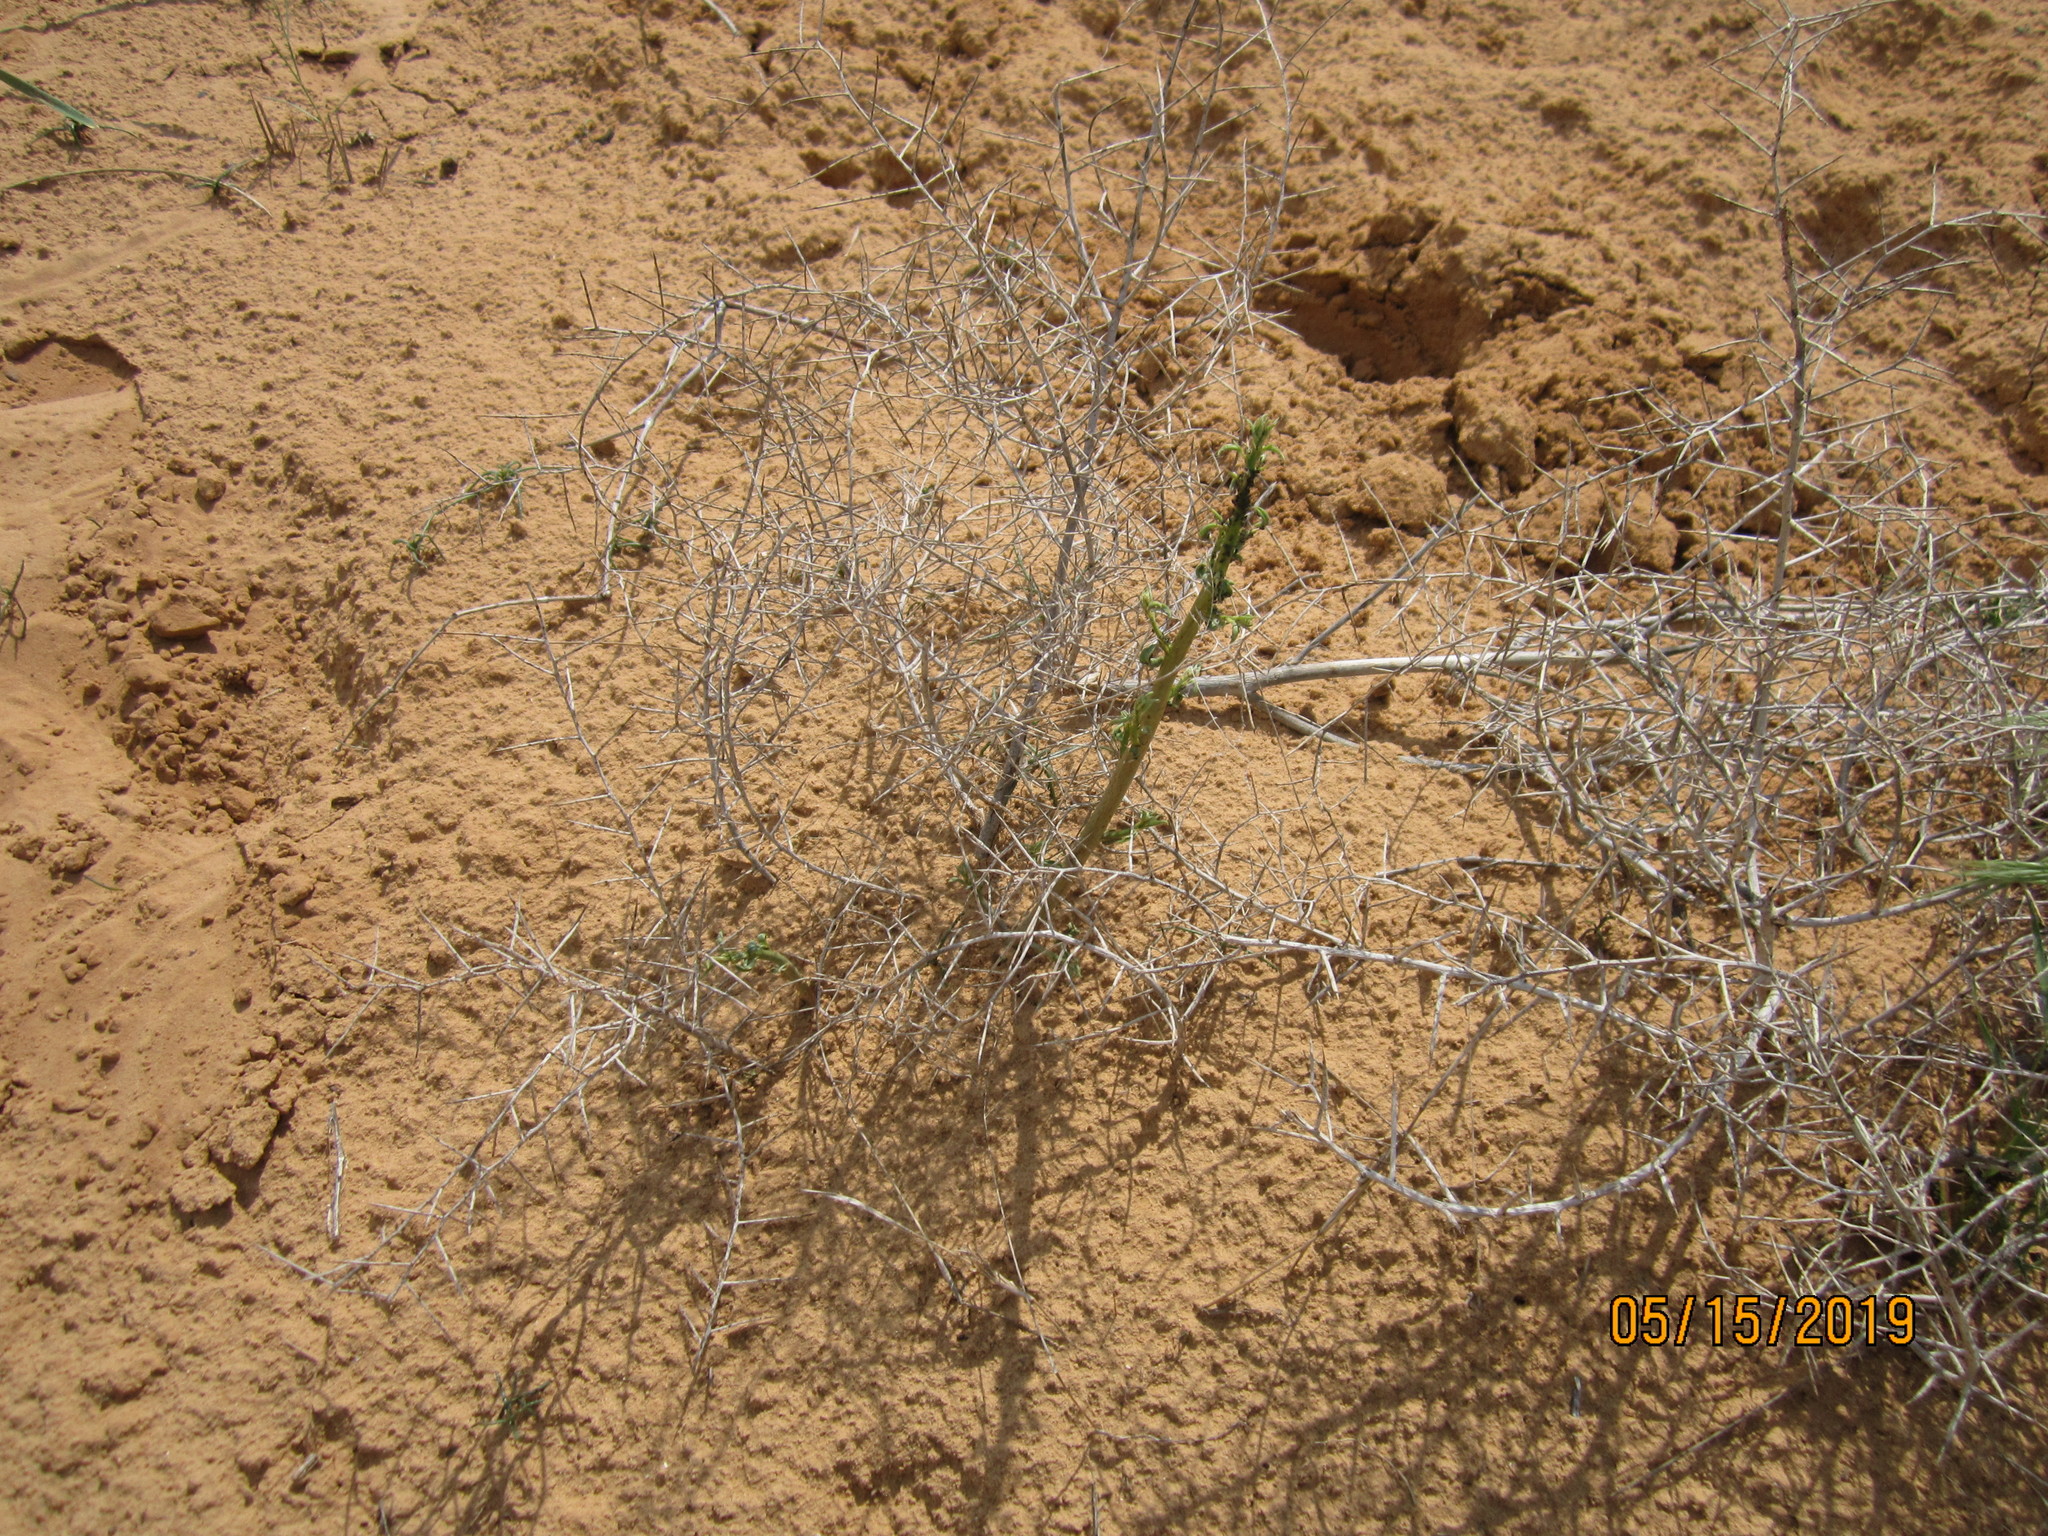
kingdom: Plantae
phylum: Tracheophyta
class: Magnoliopsida
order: Fabales
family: Fabaceae
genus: Alhagi
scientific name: Alhagi pseudalhagi
